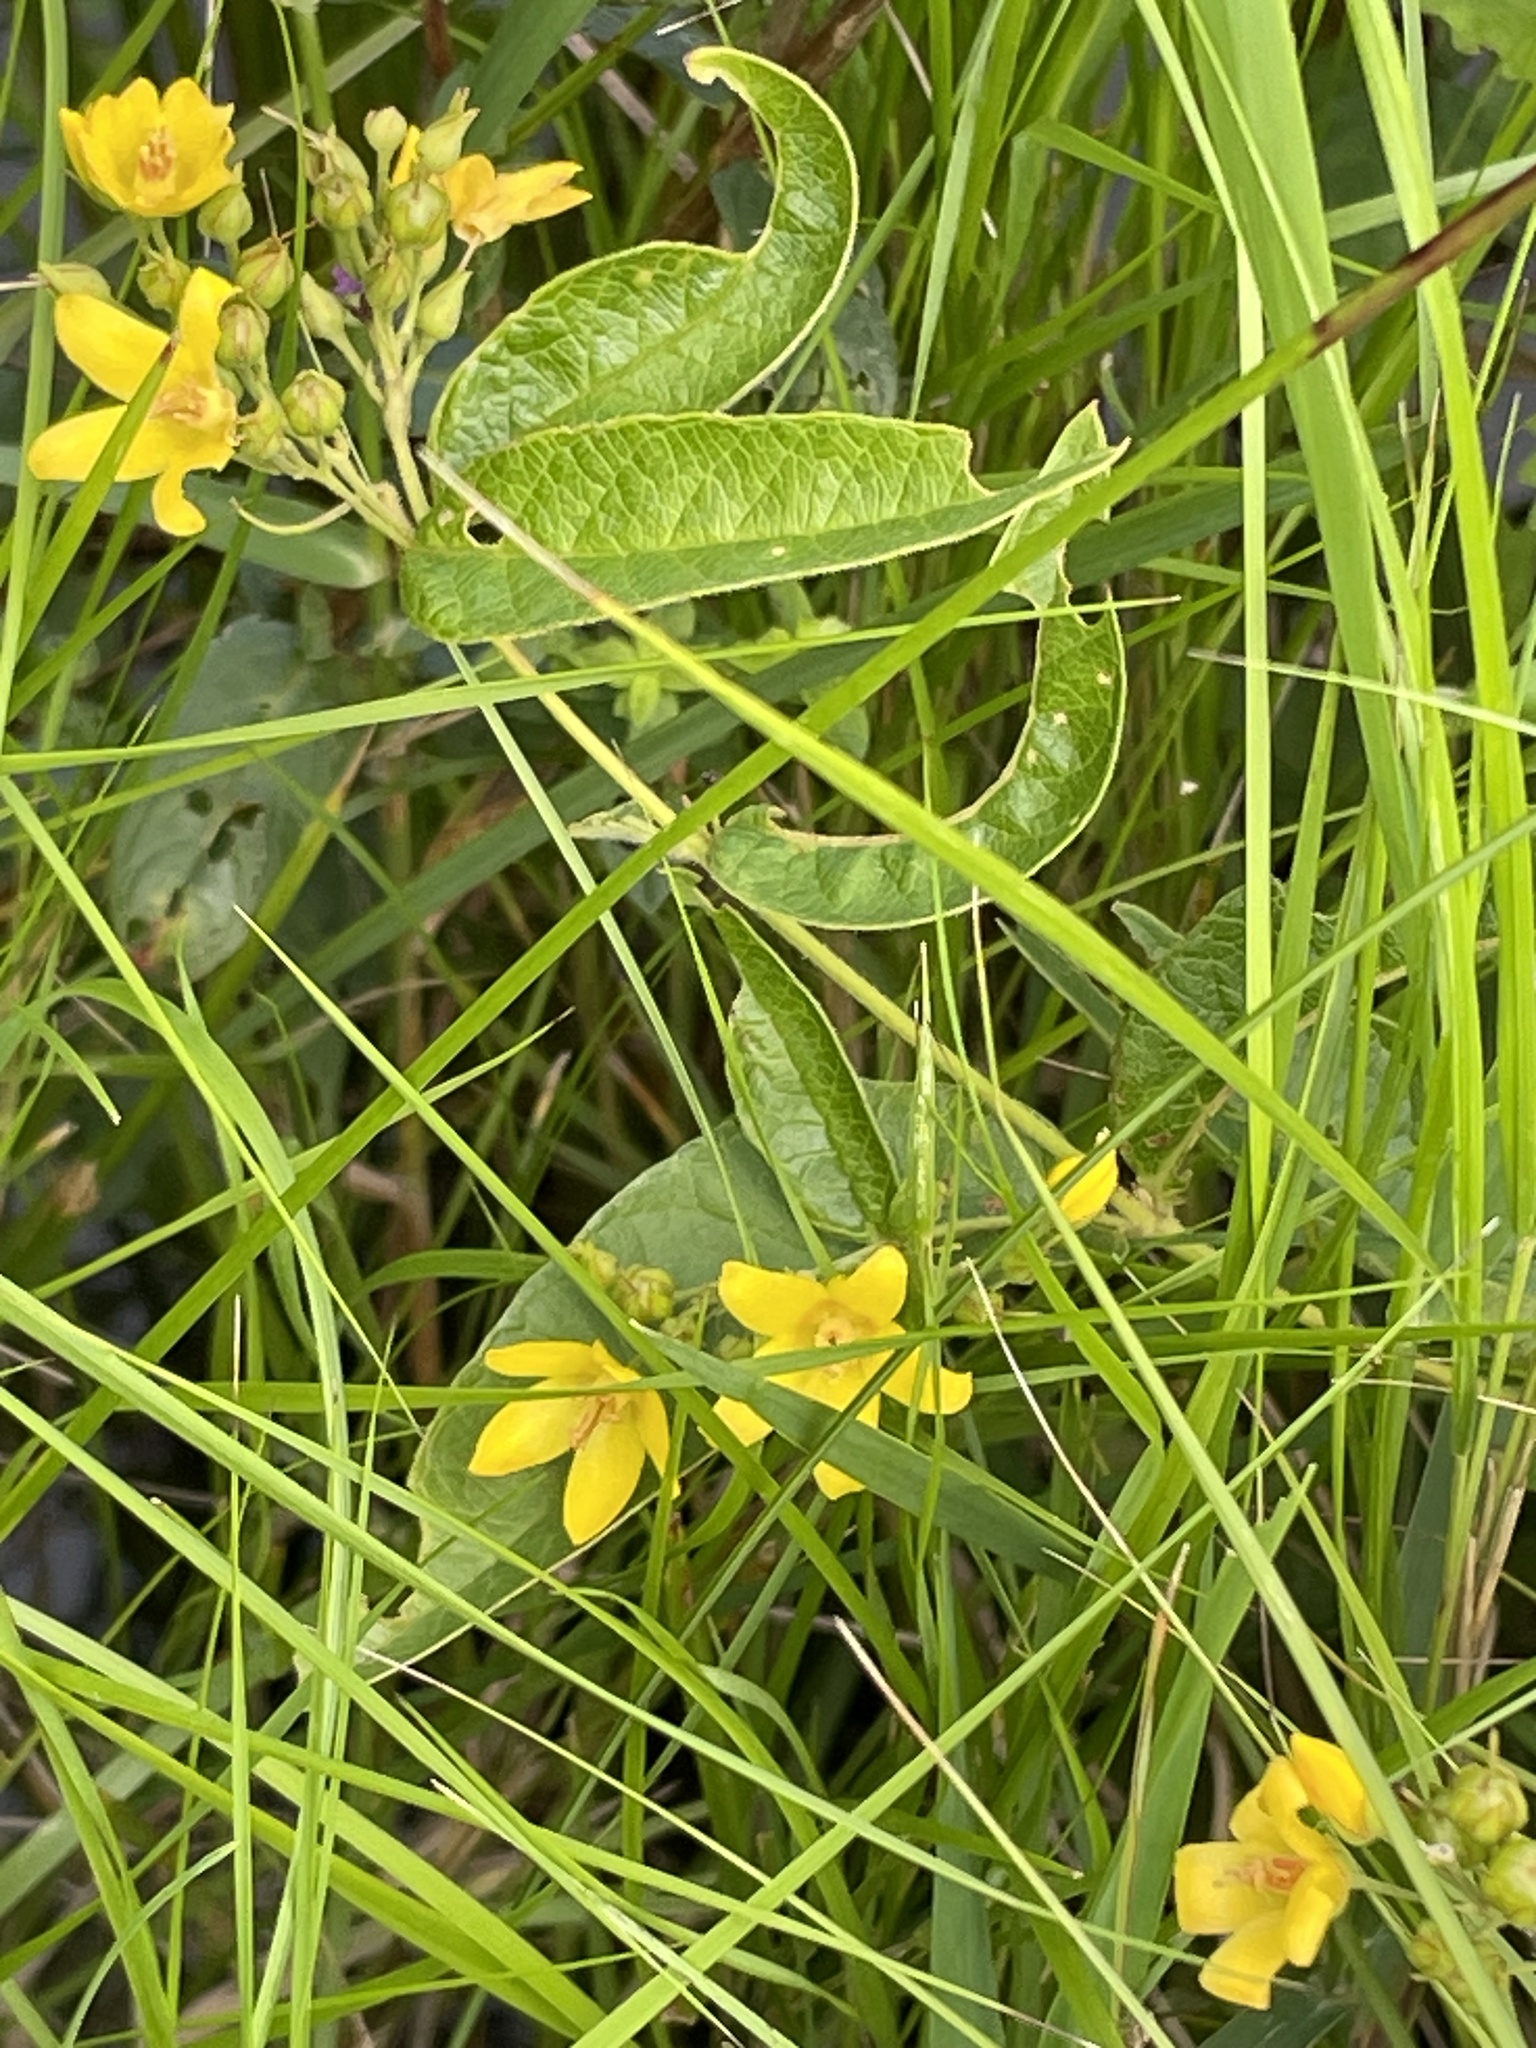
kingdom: Plantae
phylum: Tracheophyta
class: Magnoliopsida
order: Ericales
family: Primulaceae
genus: Lysimachia
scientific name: Lysimachia vulgaris
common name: Yellow loosestrife
